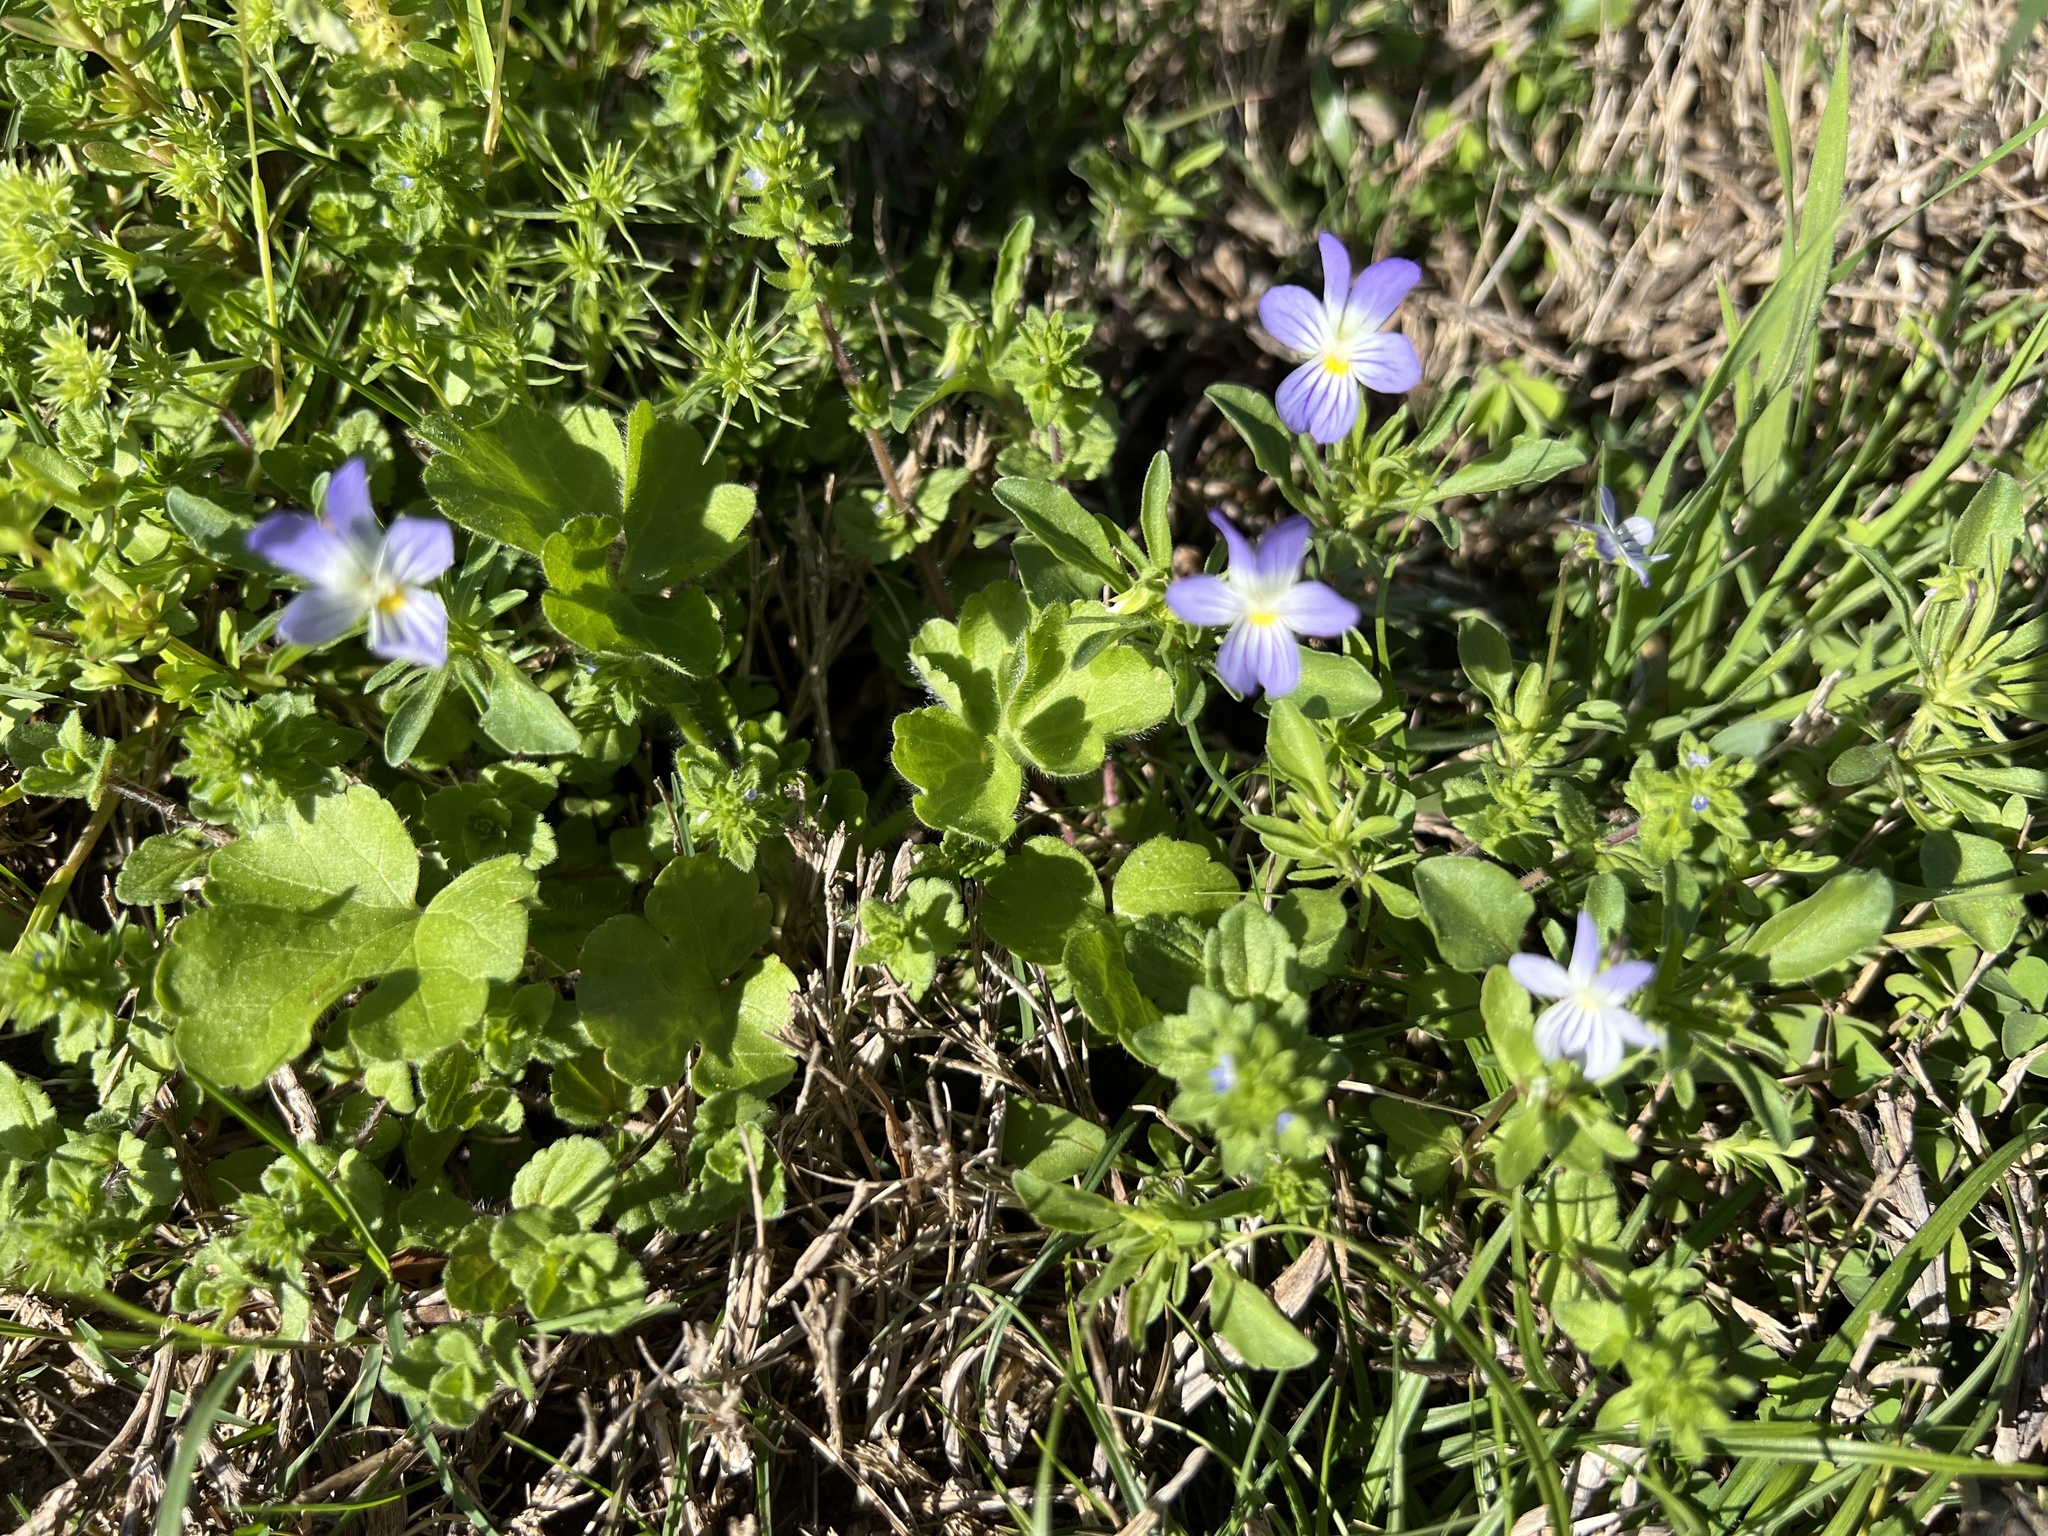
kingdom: Plantae
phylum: Tracheophyta
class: Magnoliopsida
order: Malpighiales
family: Violaceae
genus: Viola
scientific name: Viola rafinesquei
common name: American field pansy
